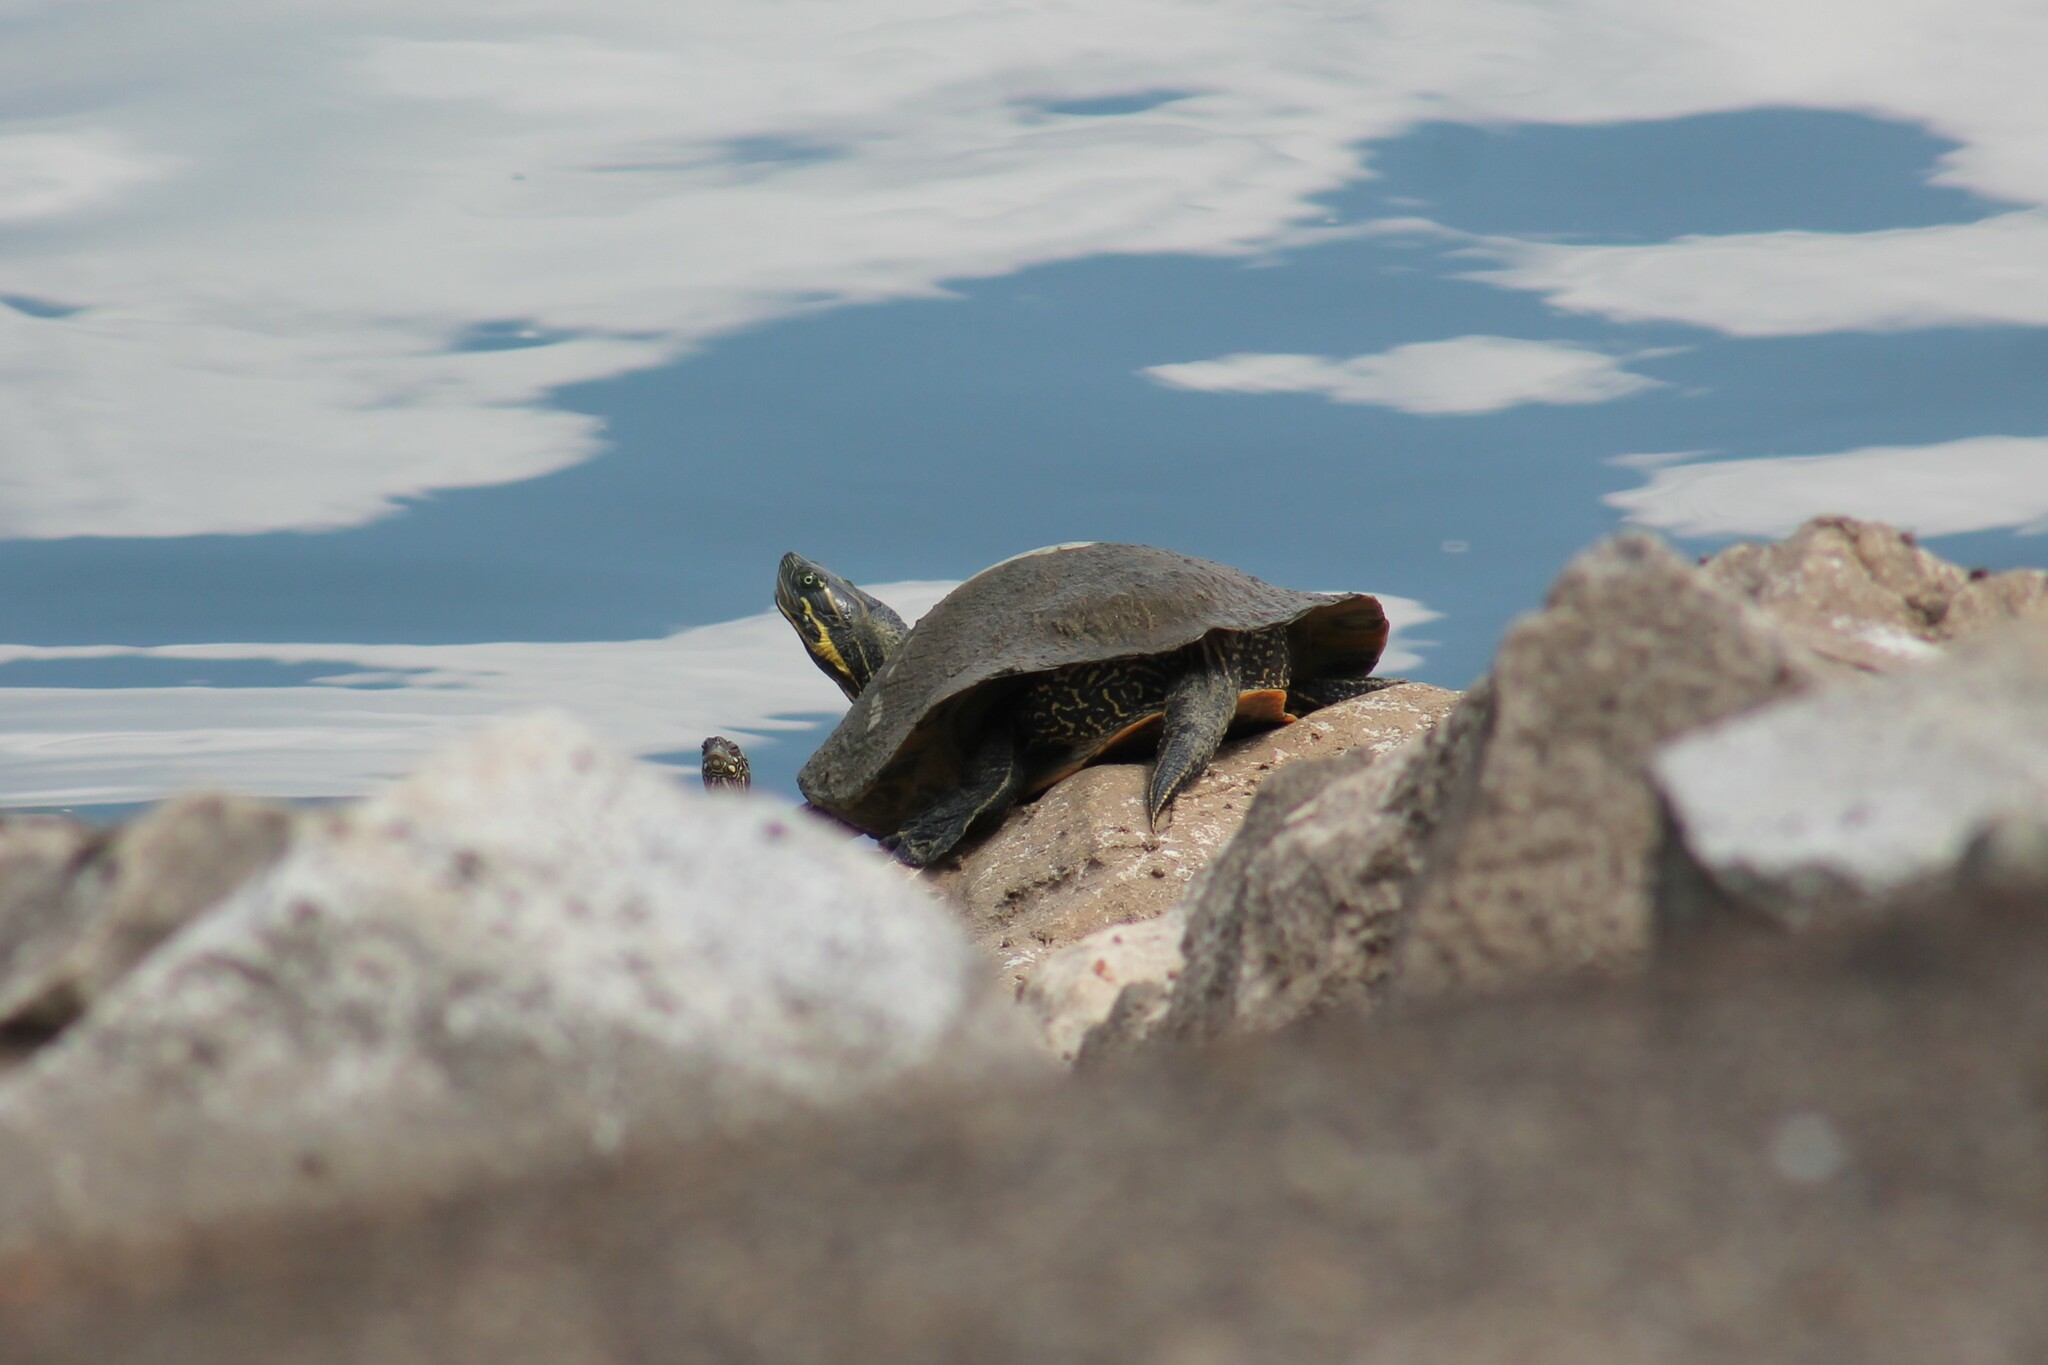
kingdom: Animalia
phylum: Chordata
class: Testudines
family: Emydidae
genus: Pseudemys
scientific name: Pseudemys concinna
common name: Eastern river cooter
